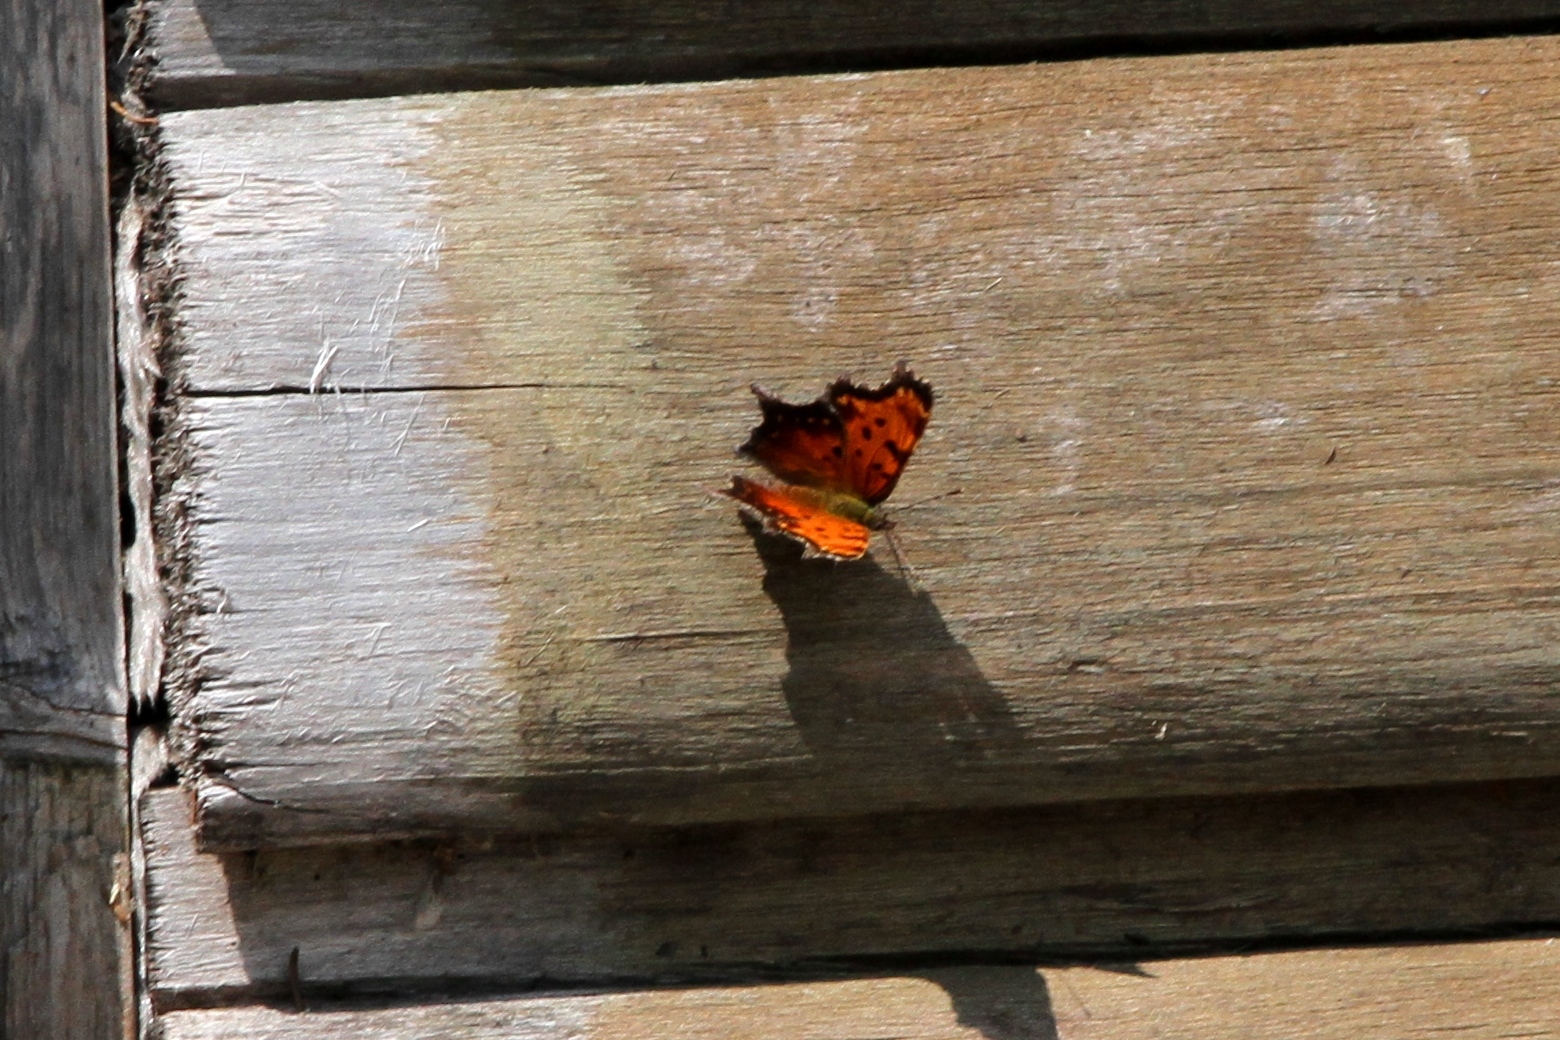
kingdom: Animalia
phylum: Arthropoda
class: Insecta
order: Lepidoptera
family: Nymphalidae
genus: Polygonia
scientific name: Polygonia progne
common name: Gray comma
